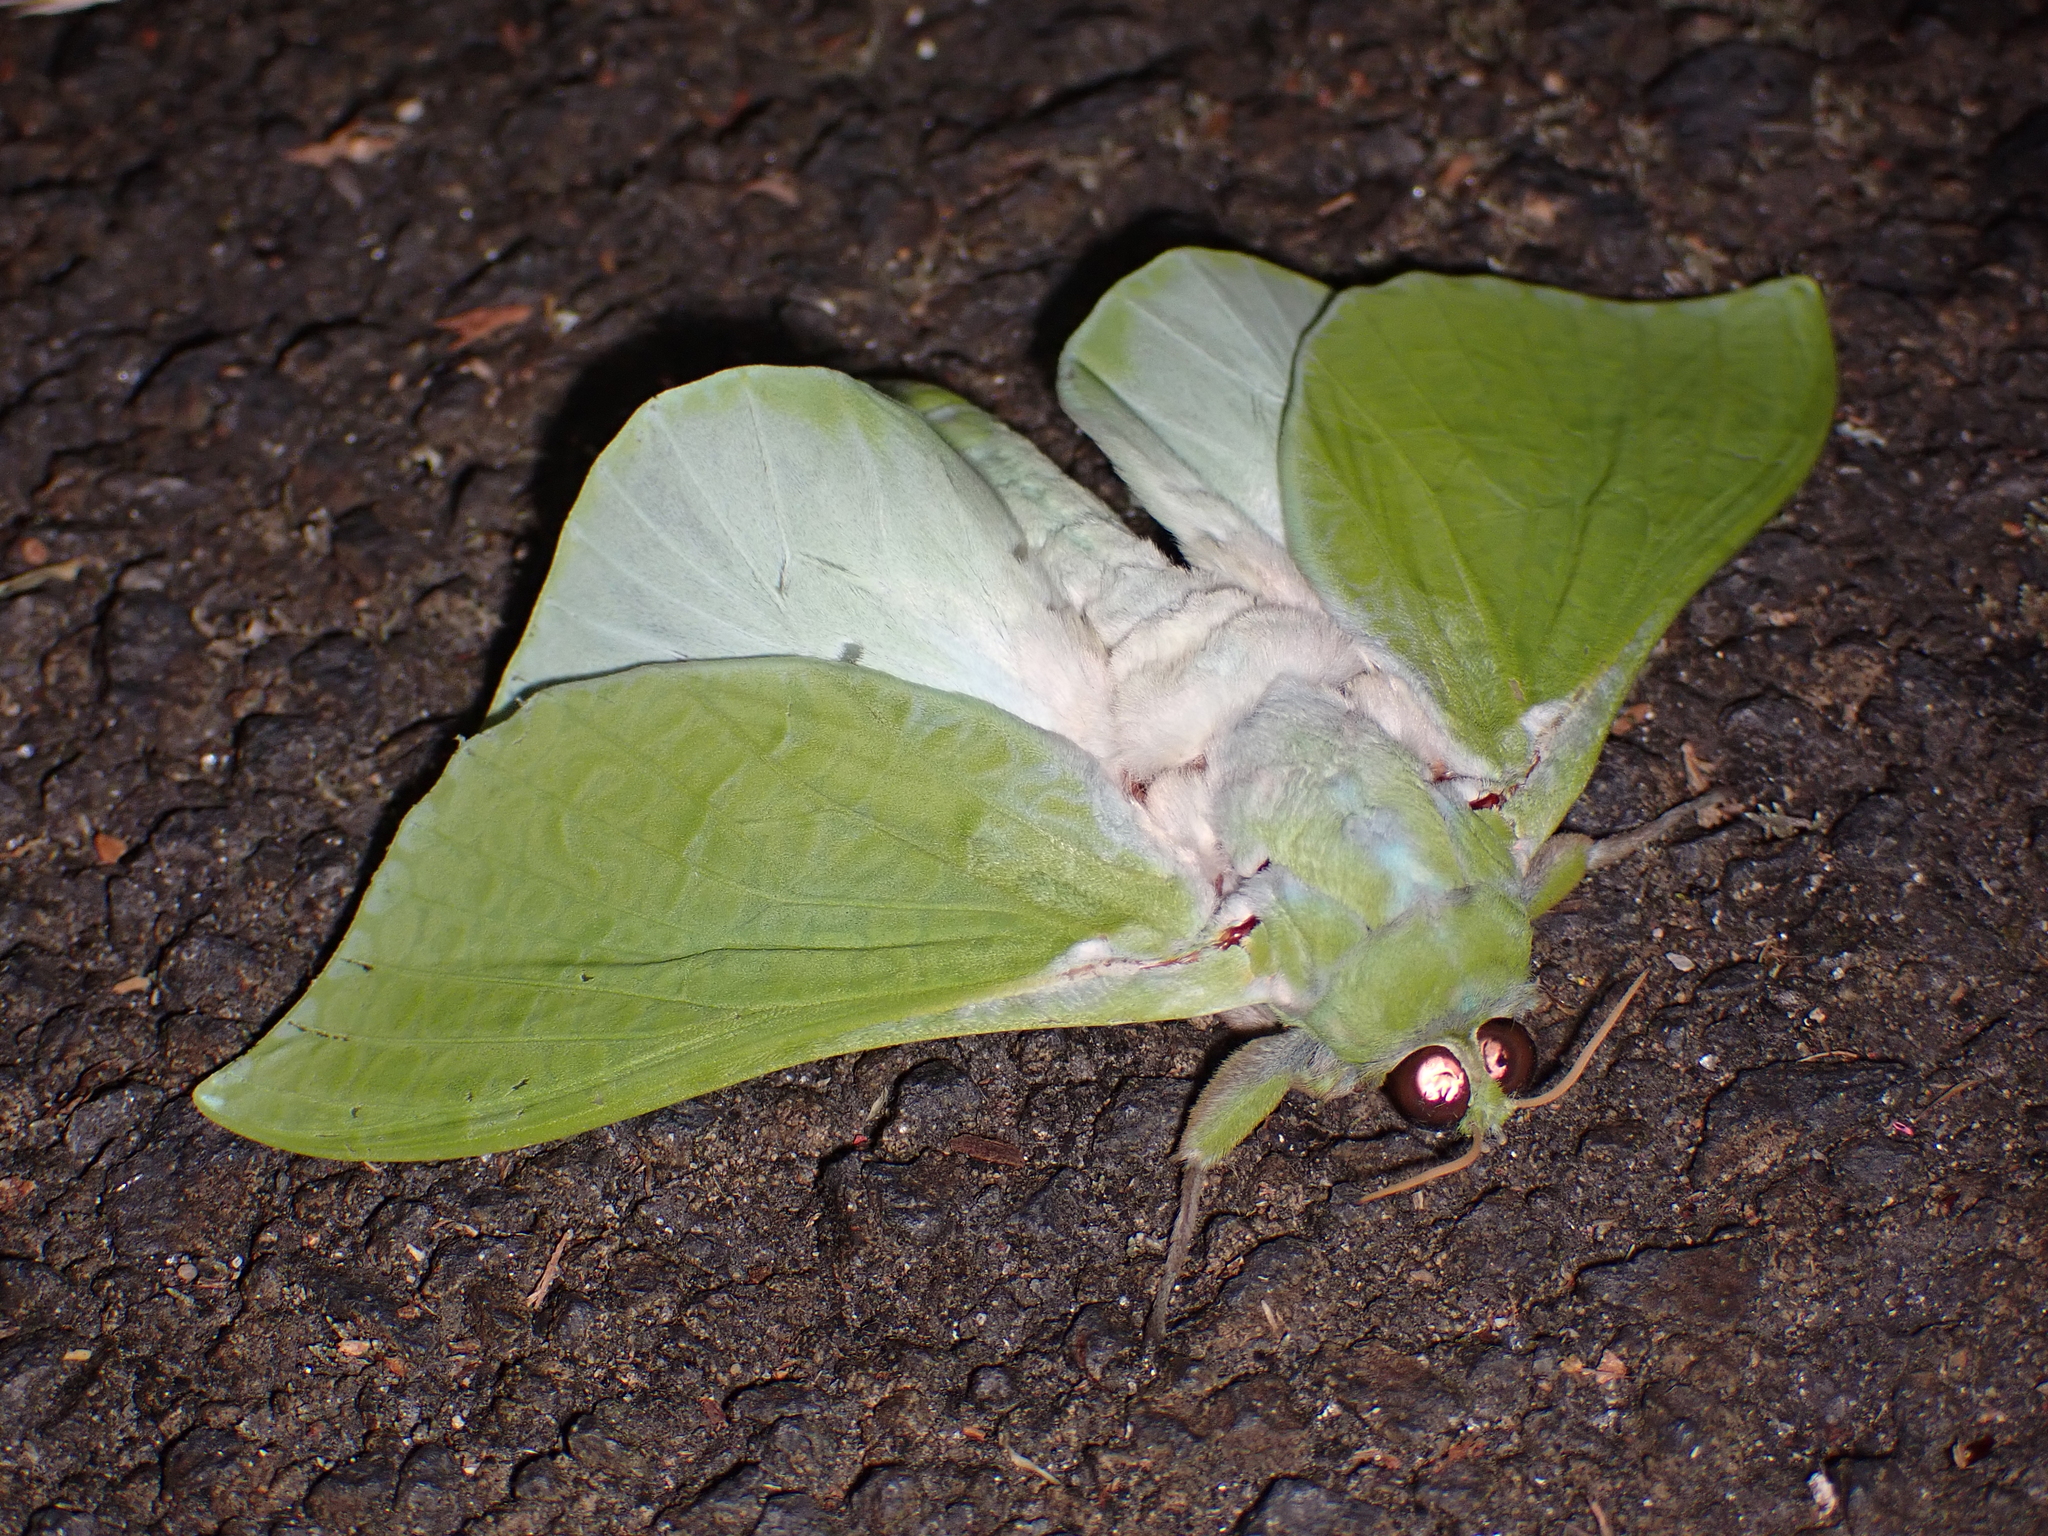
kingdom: Animalia
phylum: Arthropoda
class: Insecta
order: Lepidoptera
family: Hepialidae
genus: Aenetus
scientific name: Aenetus virescens
